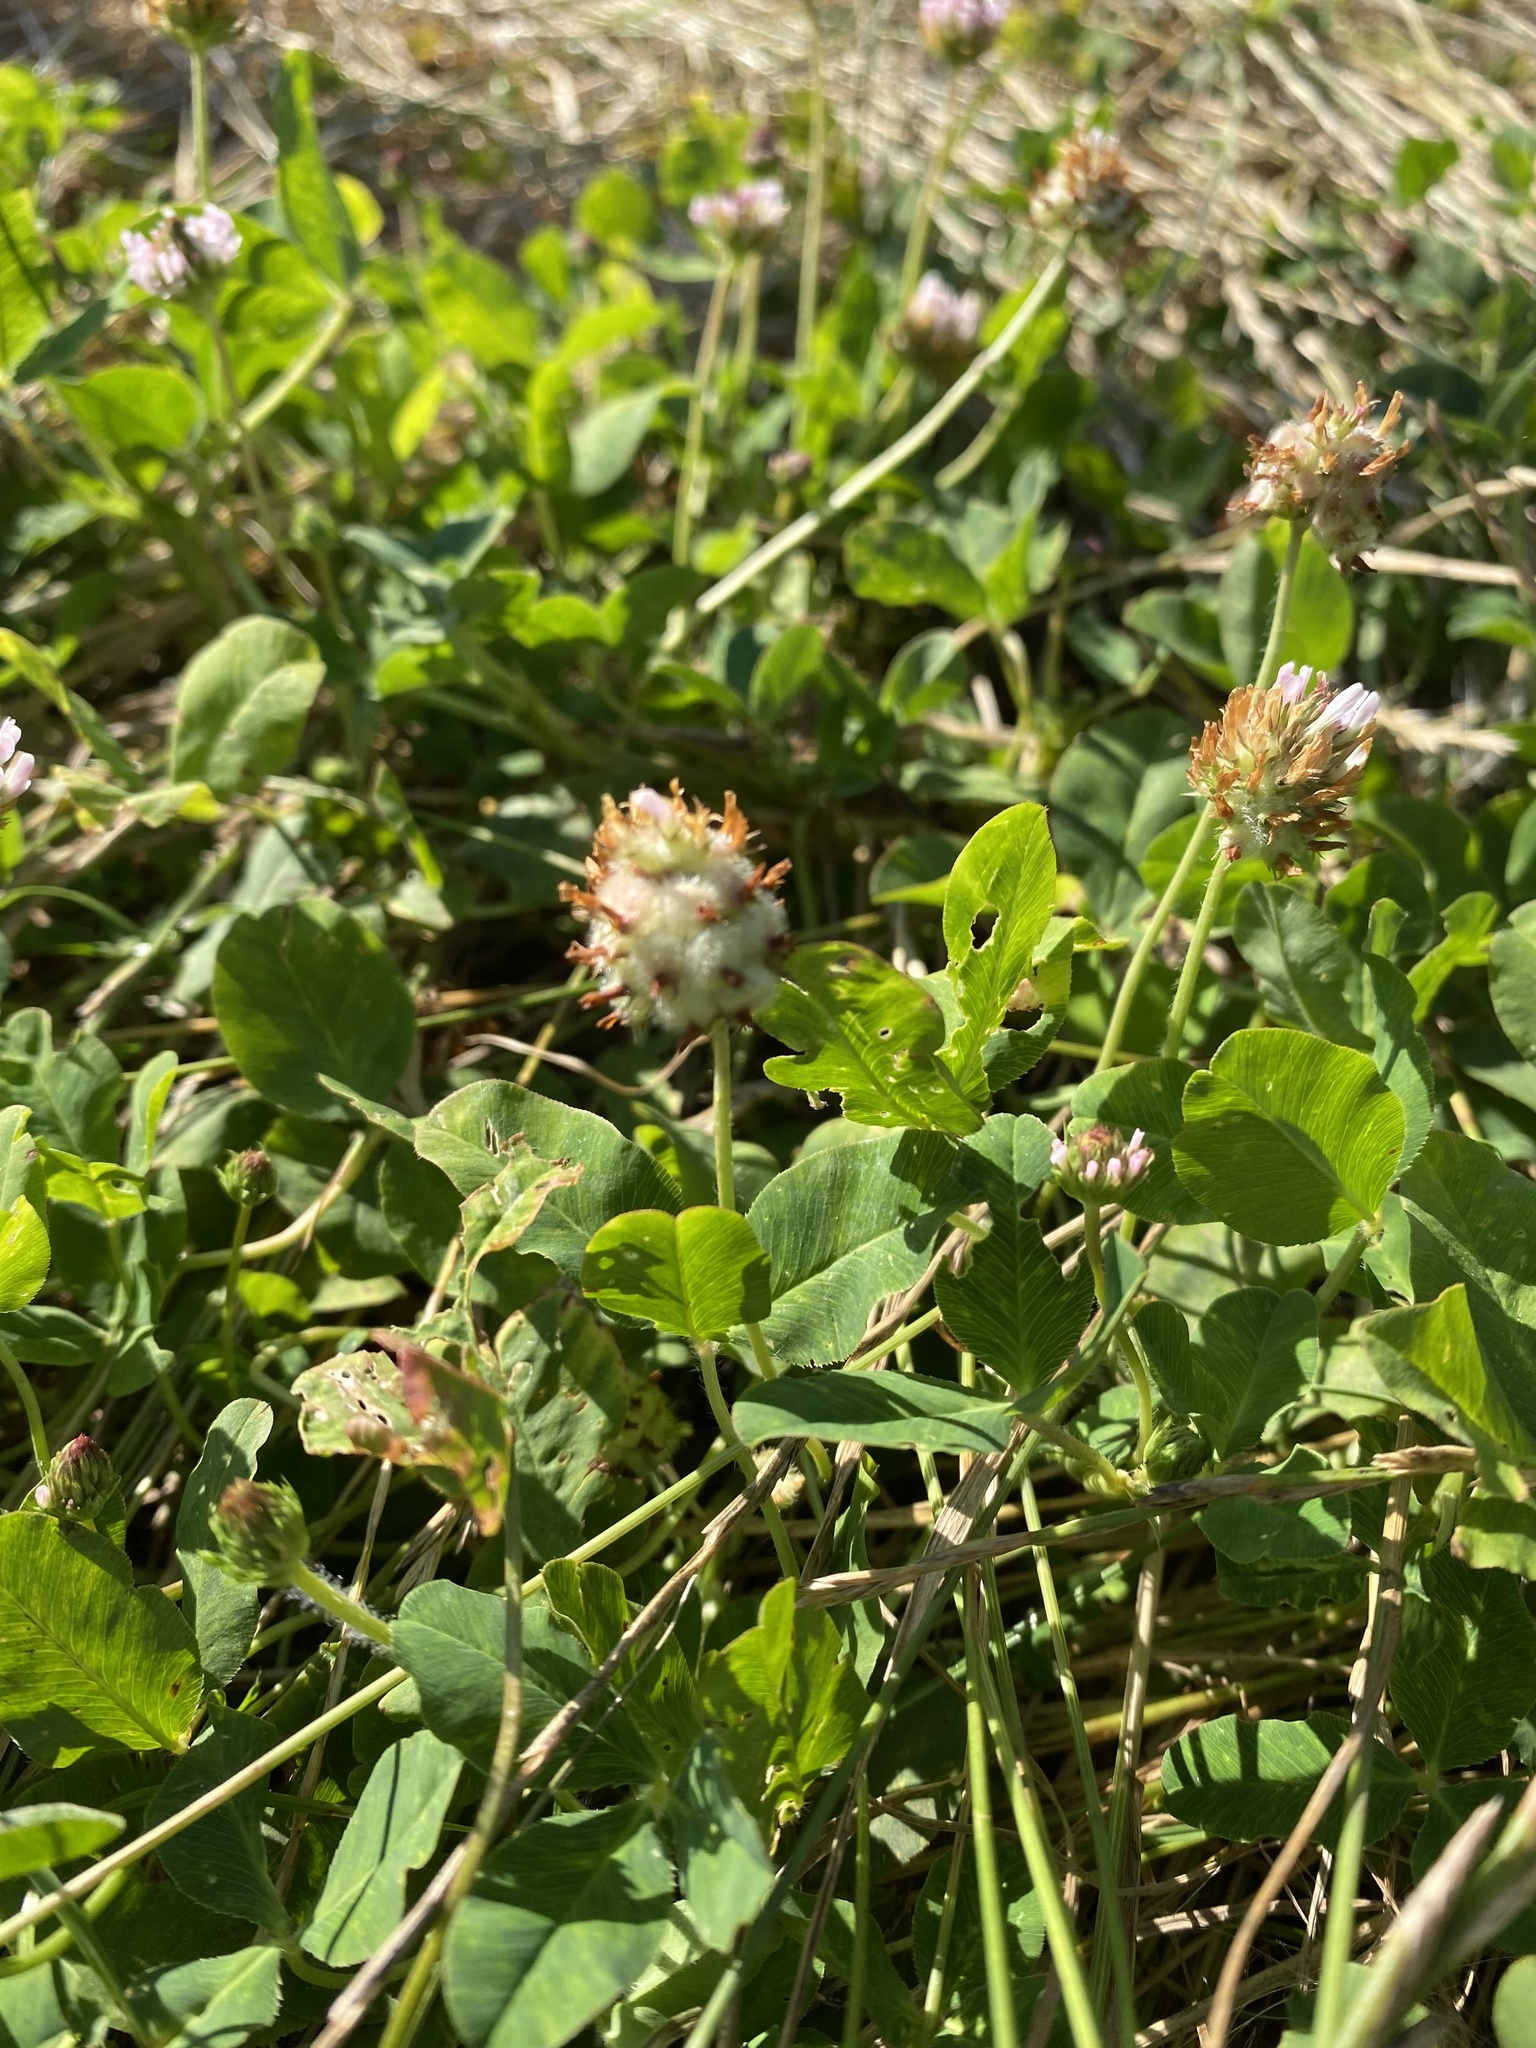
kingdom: Plantae
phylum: Tracheophyta
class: Magnoliopsida
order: Fabales
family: Fabaceae
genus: Trifolium
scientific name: Trifolium fragiferum
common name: Strawberry clover
